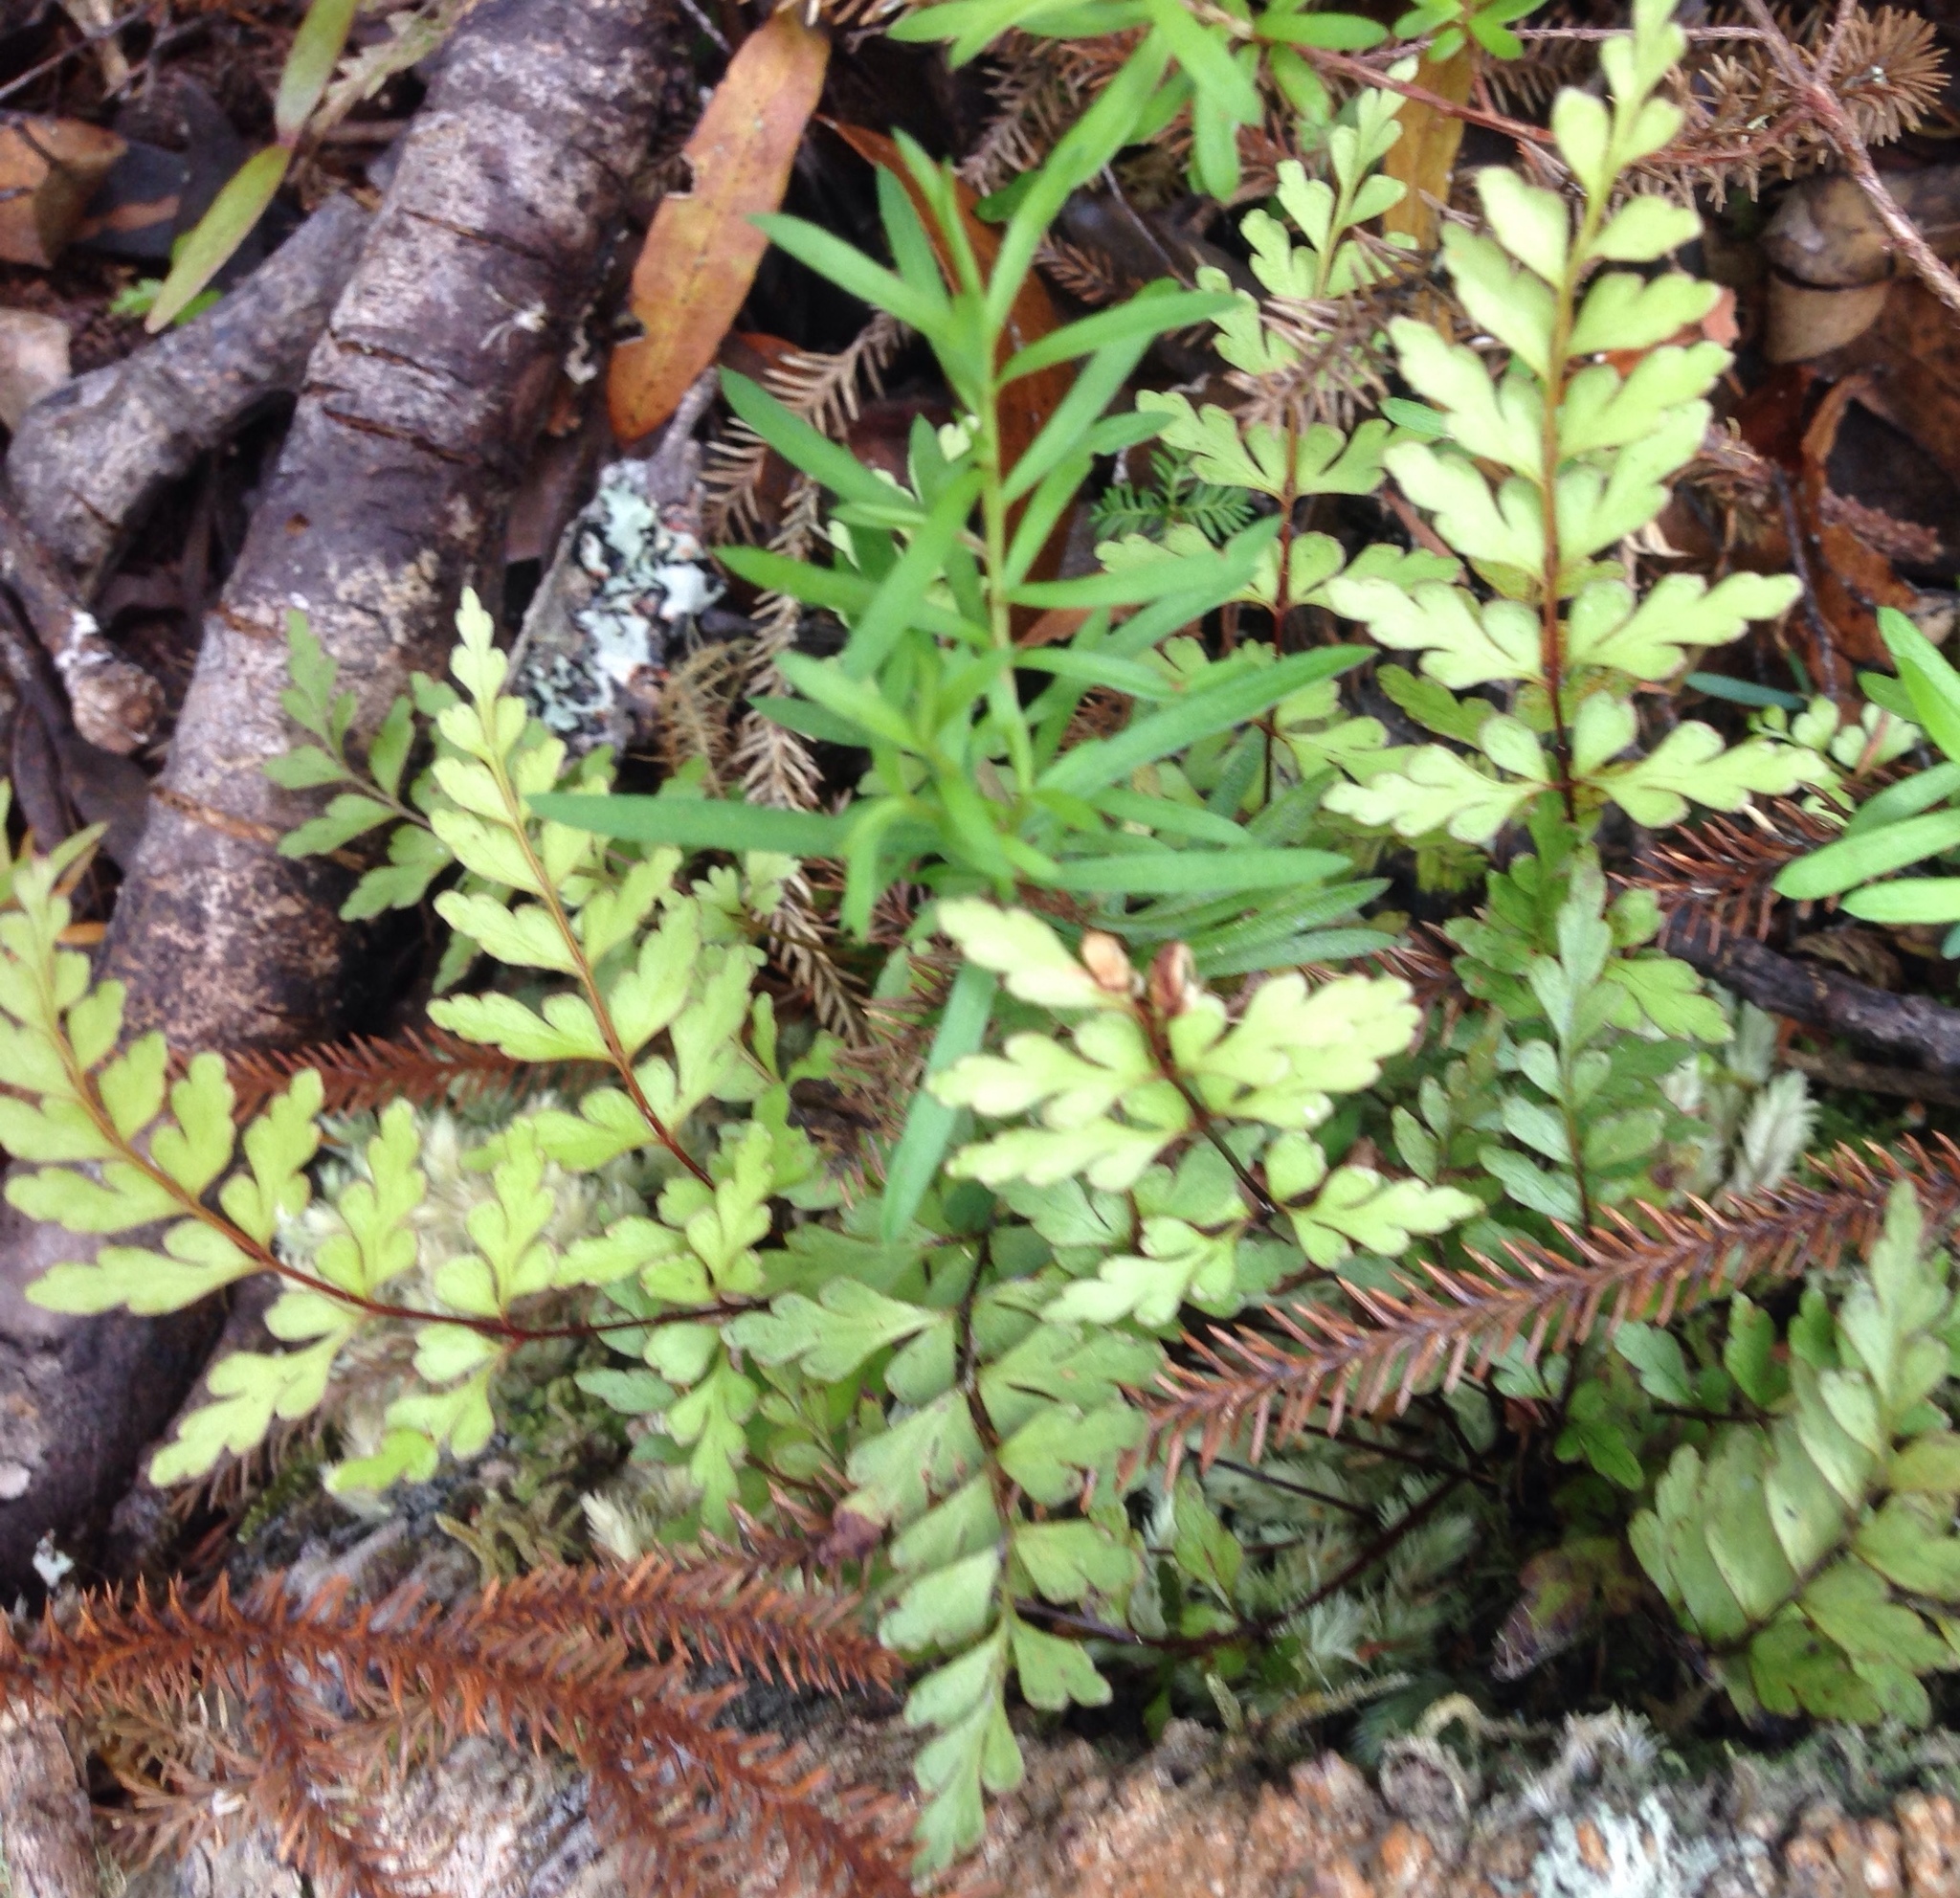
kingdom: Plantae
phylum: Tracheophyta
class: Polypodiopsida
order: Polypodiales
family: Lindsaeaceae
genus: Lindsaea
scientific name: Lindsaea trichomanoides
